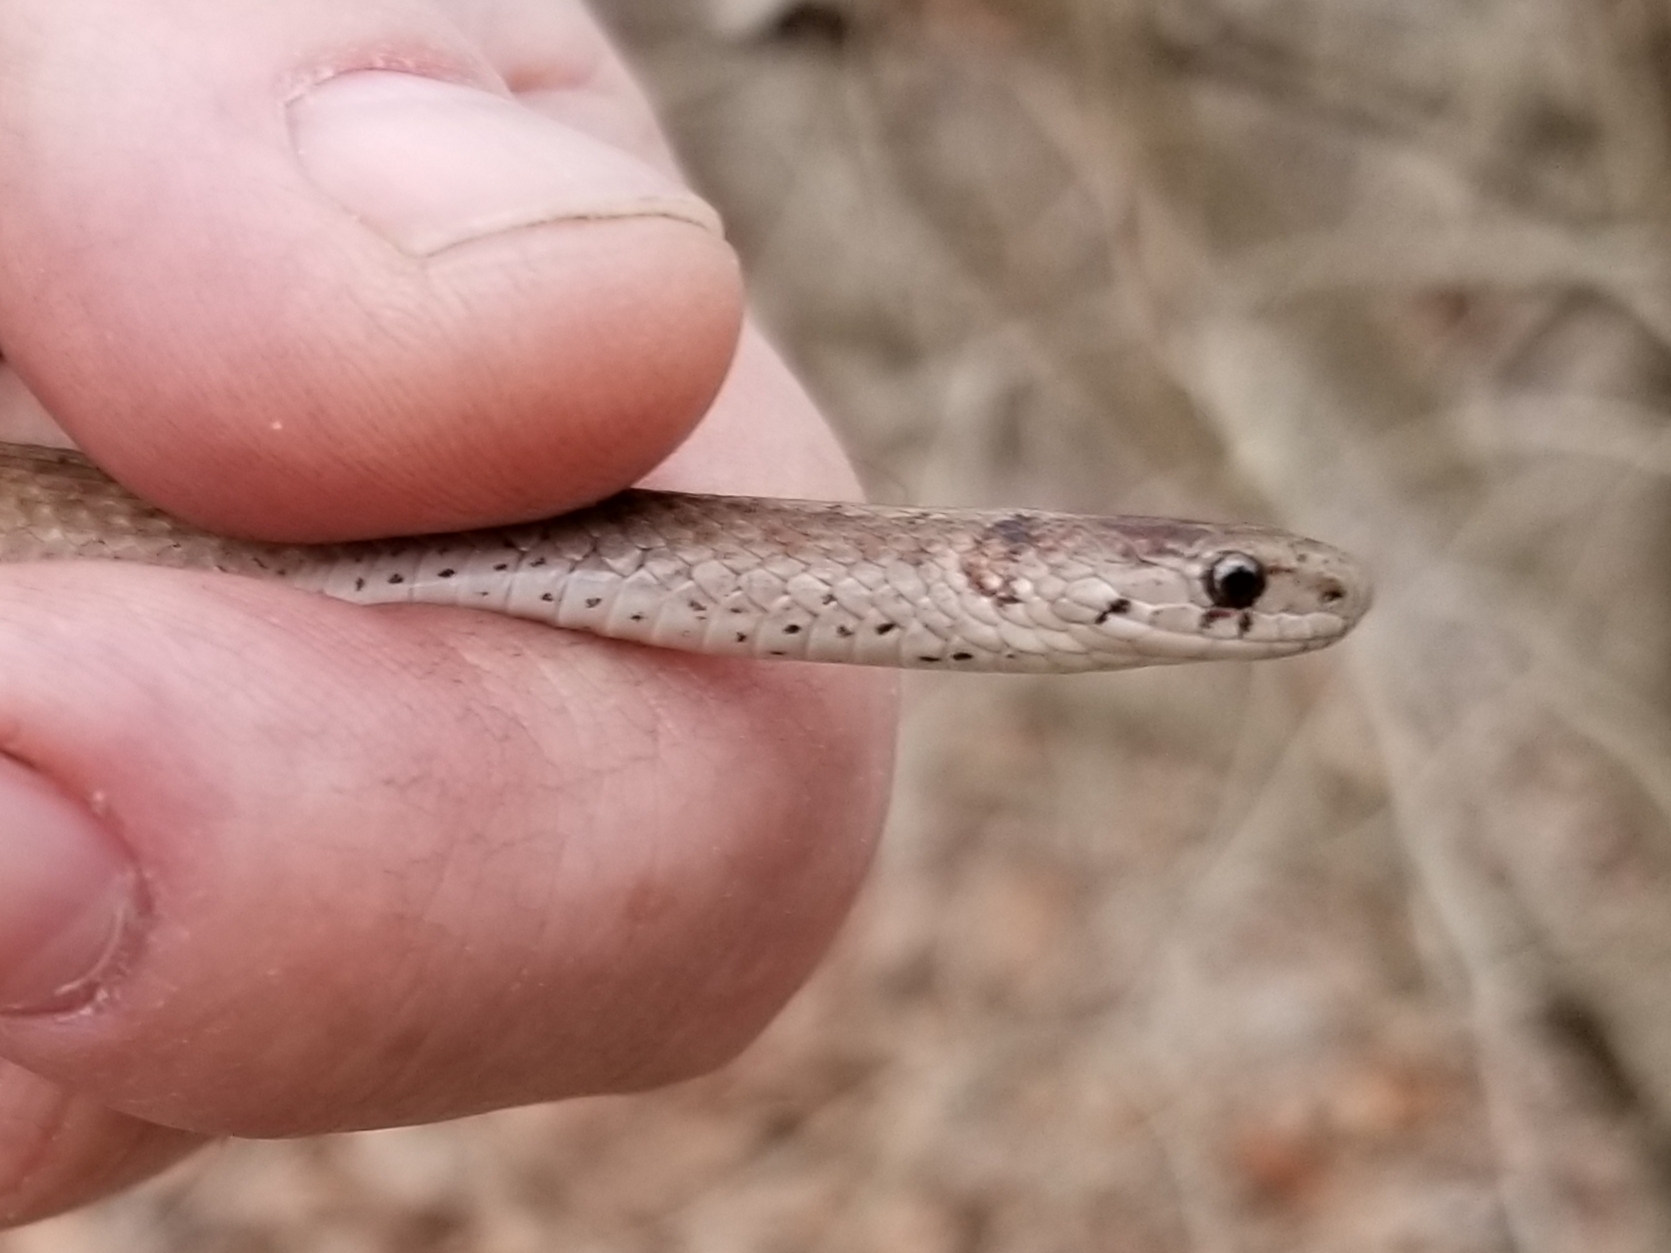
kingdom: Animalia
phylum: Chordata
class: Squamata
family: Colubridae
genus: Storeria
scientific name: Storeria dekayi
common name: (dekay’s) brown snake
